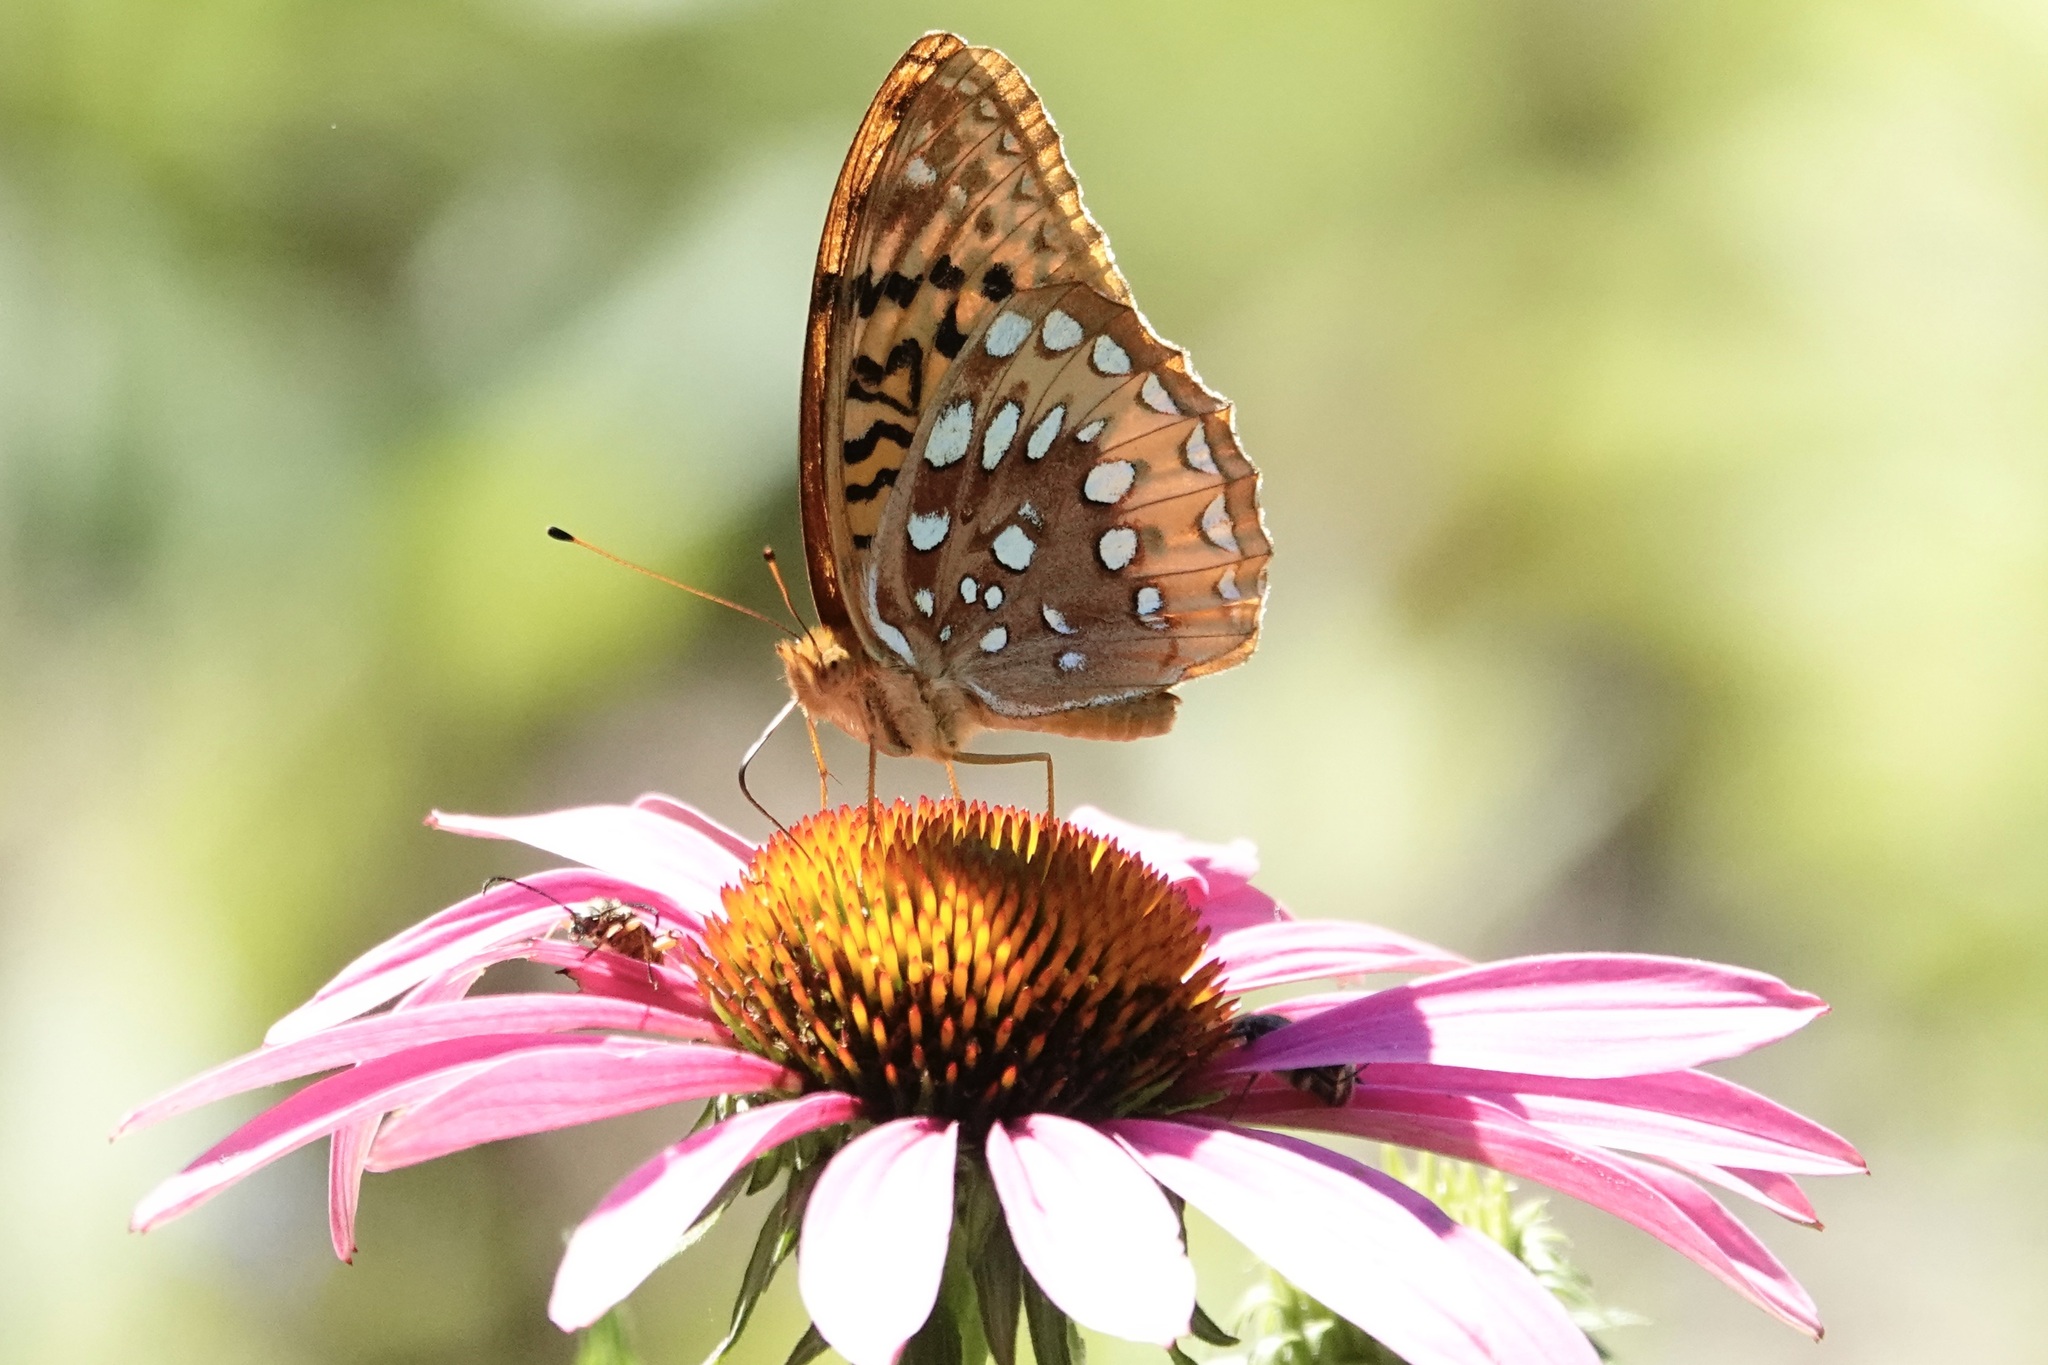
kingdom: Animalia
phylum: Arthropoda
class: Insecta
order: Lepidoptera
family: Nymphalidae
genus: Speyeria
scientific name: Speyeria cybele
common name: Great spangled fritillary
